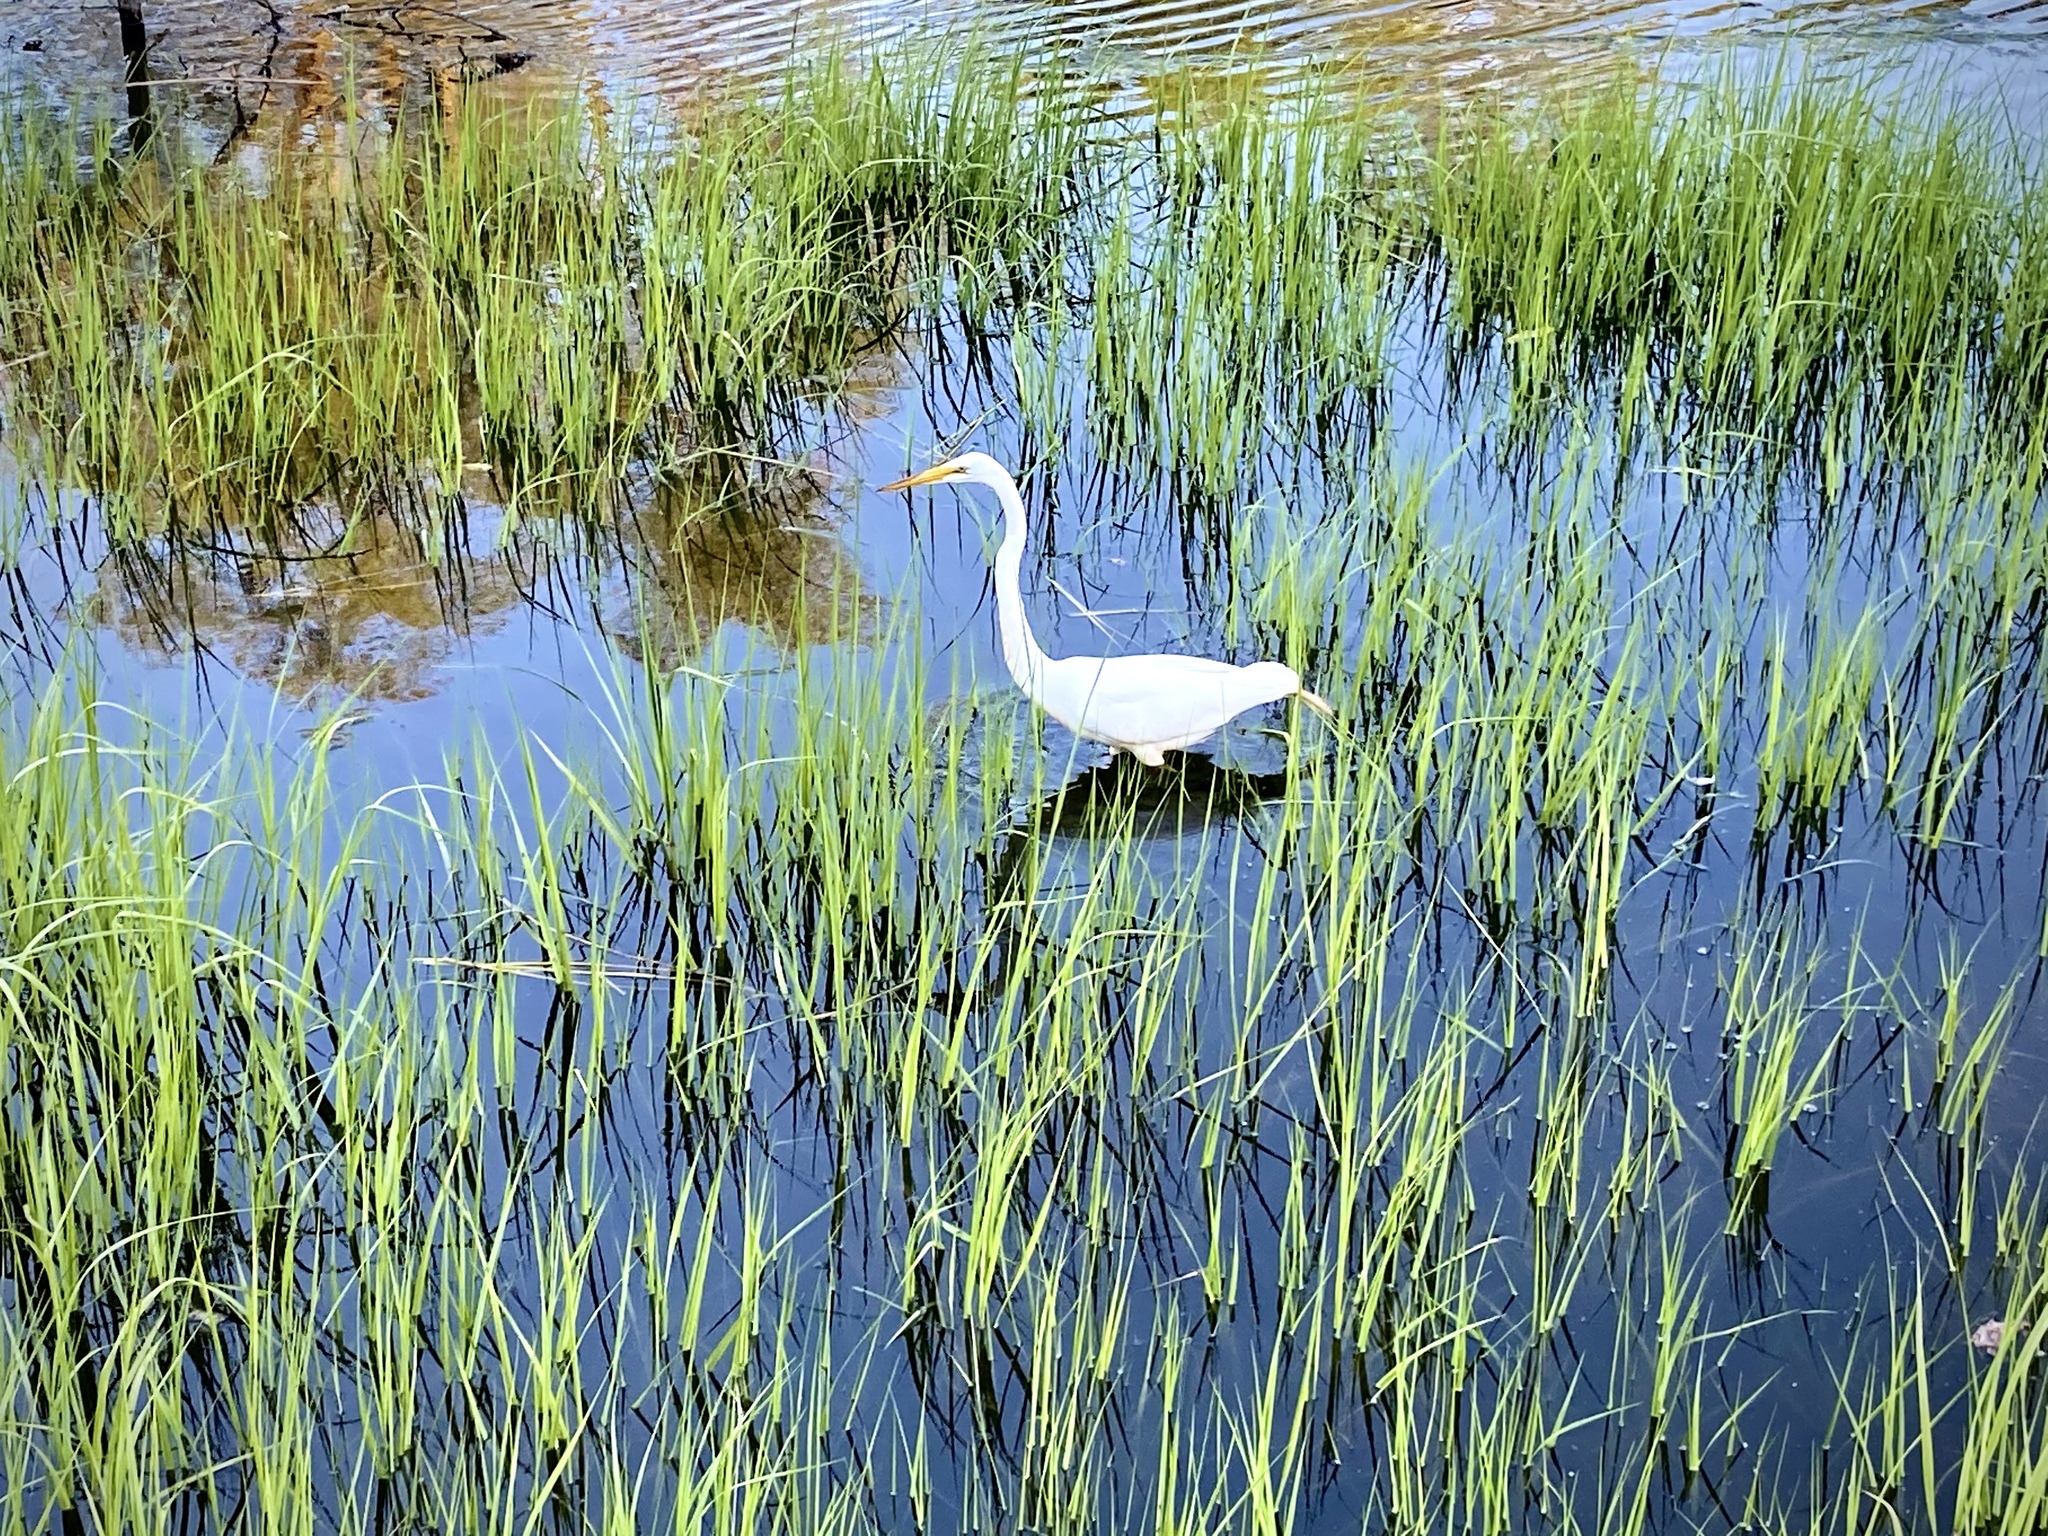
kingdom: Animalia
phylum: Chordata
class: Aves
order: Pelecaniformes
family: Ardeidae
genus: Ardea
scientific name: Ardea alba
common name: Great egret
